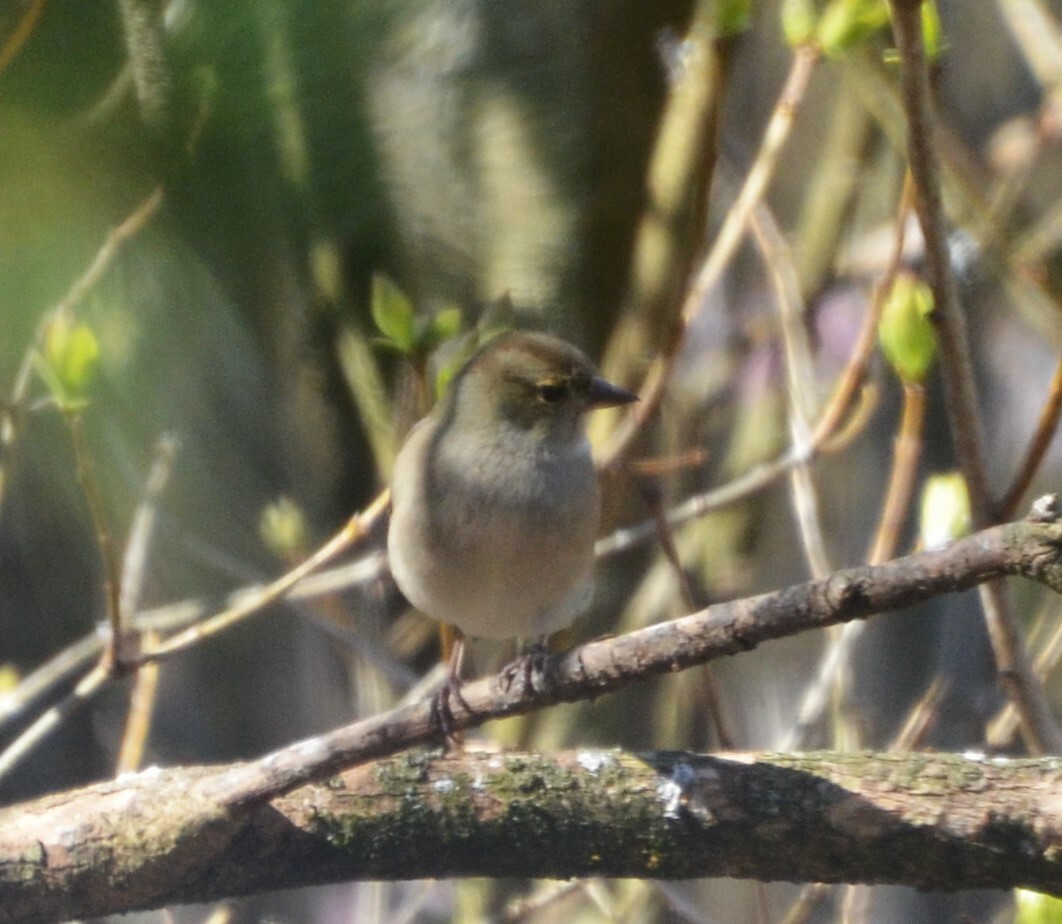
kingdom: Animalia
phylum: Chordata
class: Aves
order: Passeriformes
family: Fringillidae
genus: Fringilla
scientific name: Fringilla coelebs
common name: Common chaffinch
